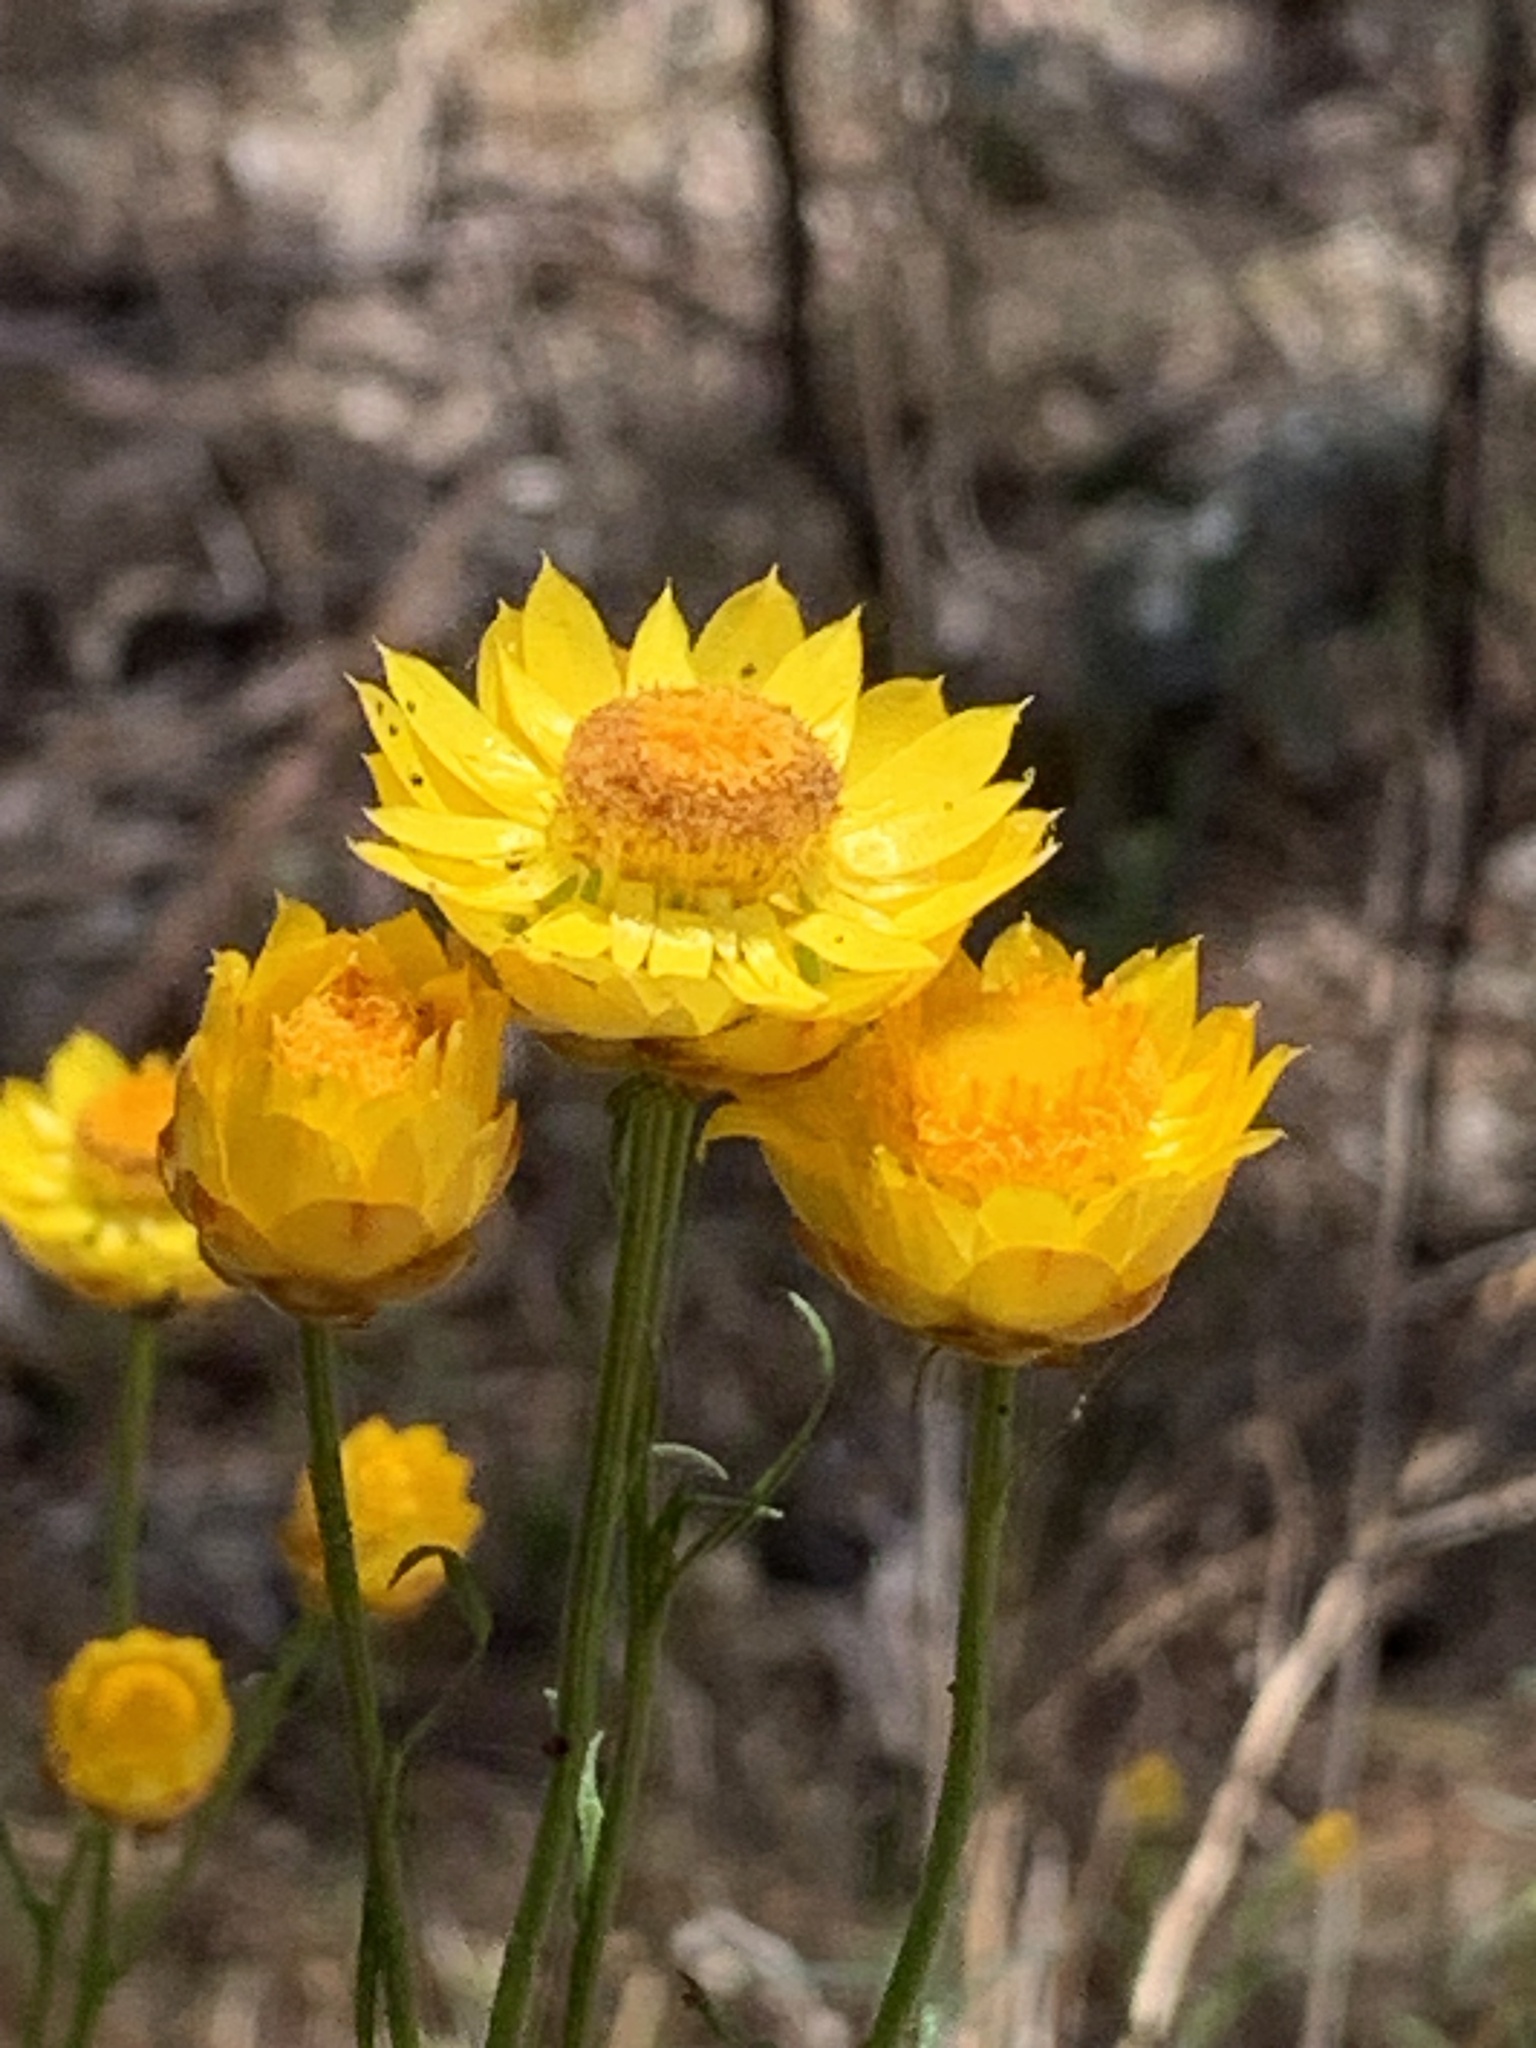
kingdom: Plantae
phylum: Tracheophyta
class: Magnoliopsida
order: Asterales
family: Asteraceae
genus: Xerochrysum
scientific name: Xerochrysum viscosum
